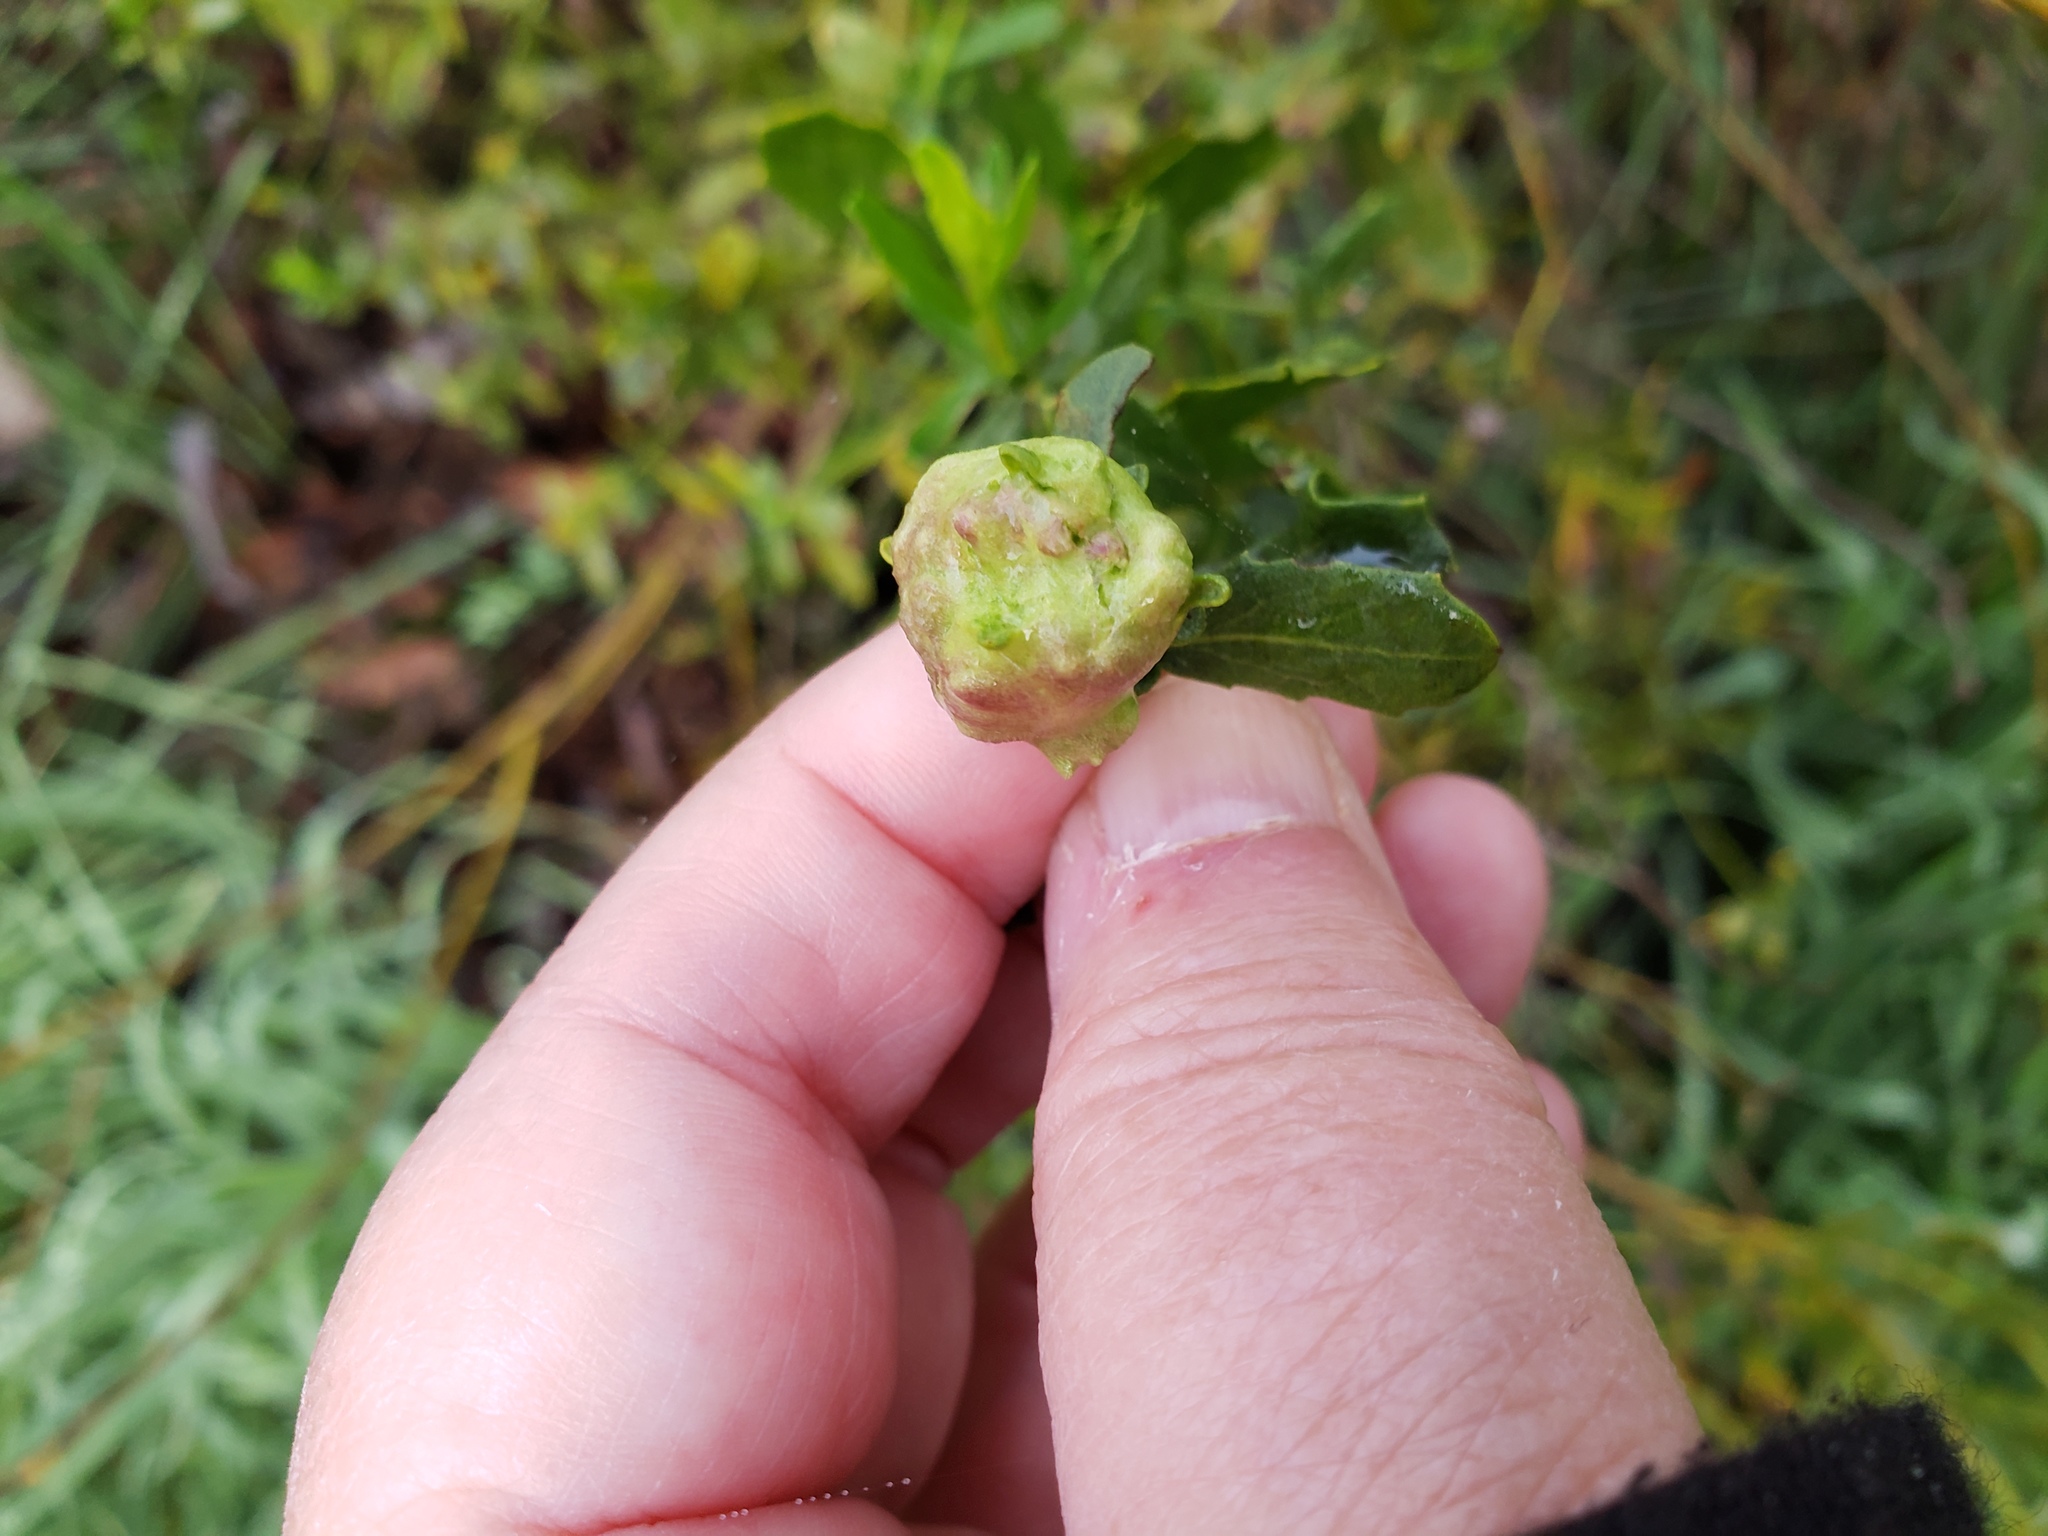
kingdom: Animalia
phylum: Arthropoda
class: Insecta
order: Diptera
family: Cecidomyiidae
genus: Rhopalomyia
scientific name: Rhopalomyia californica
